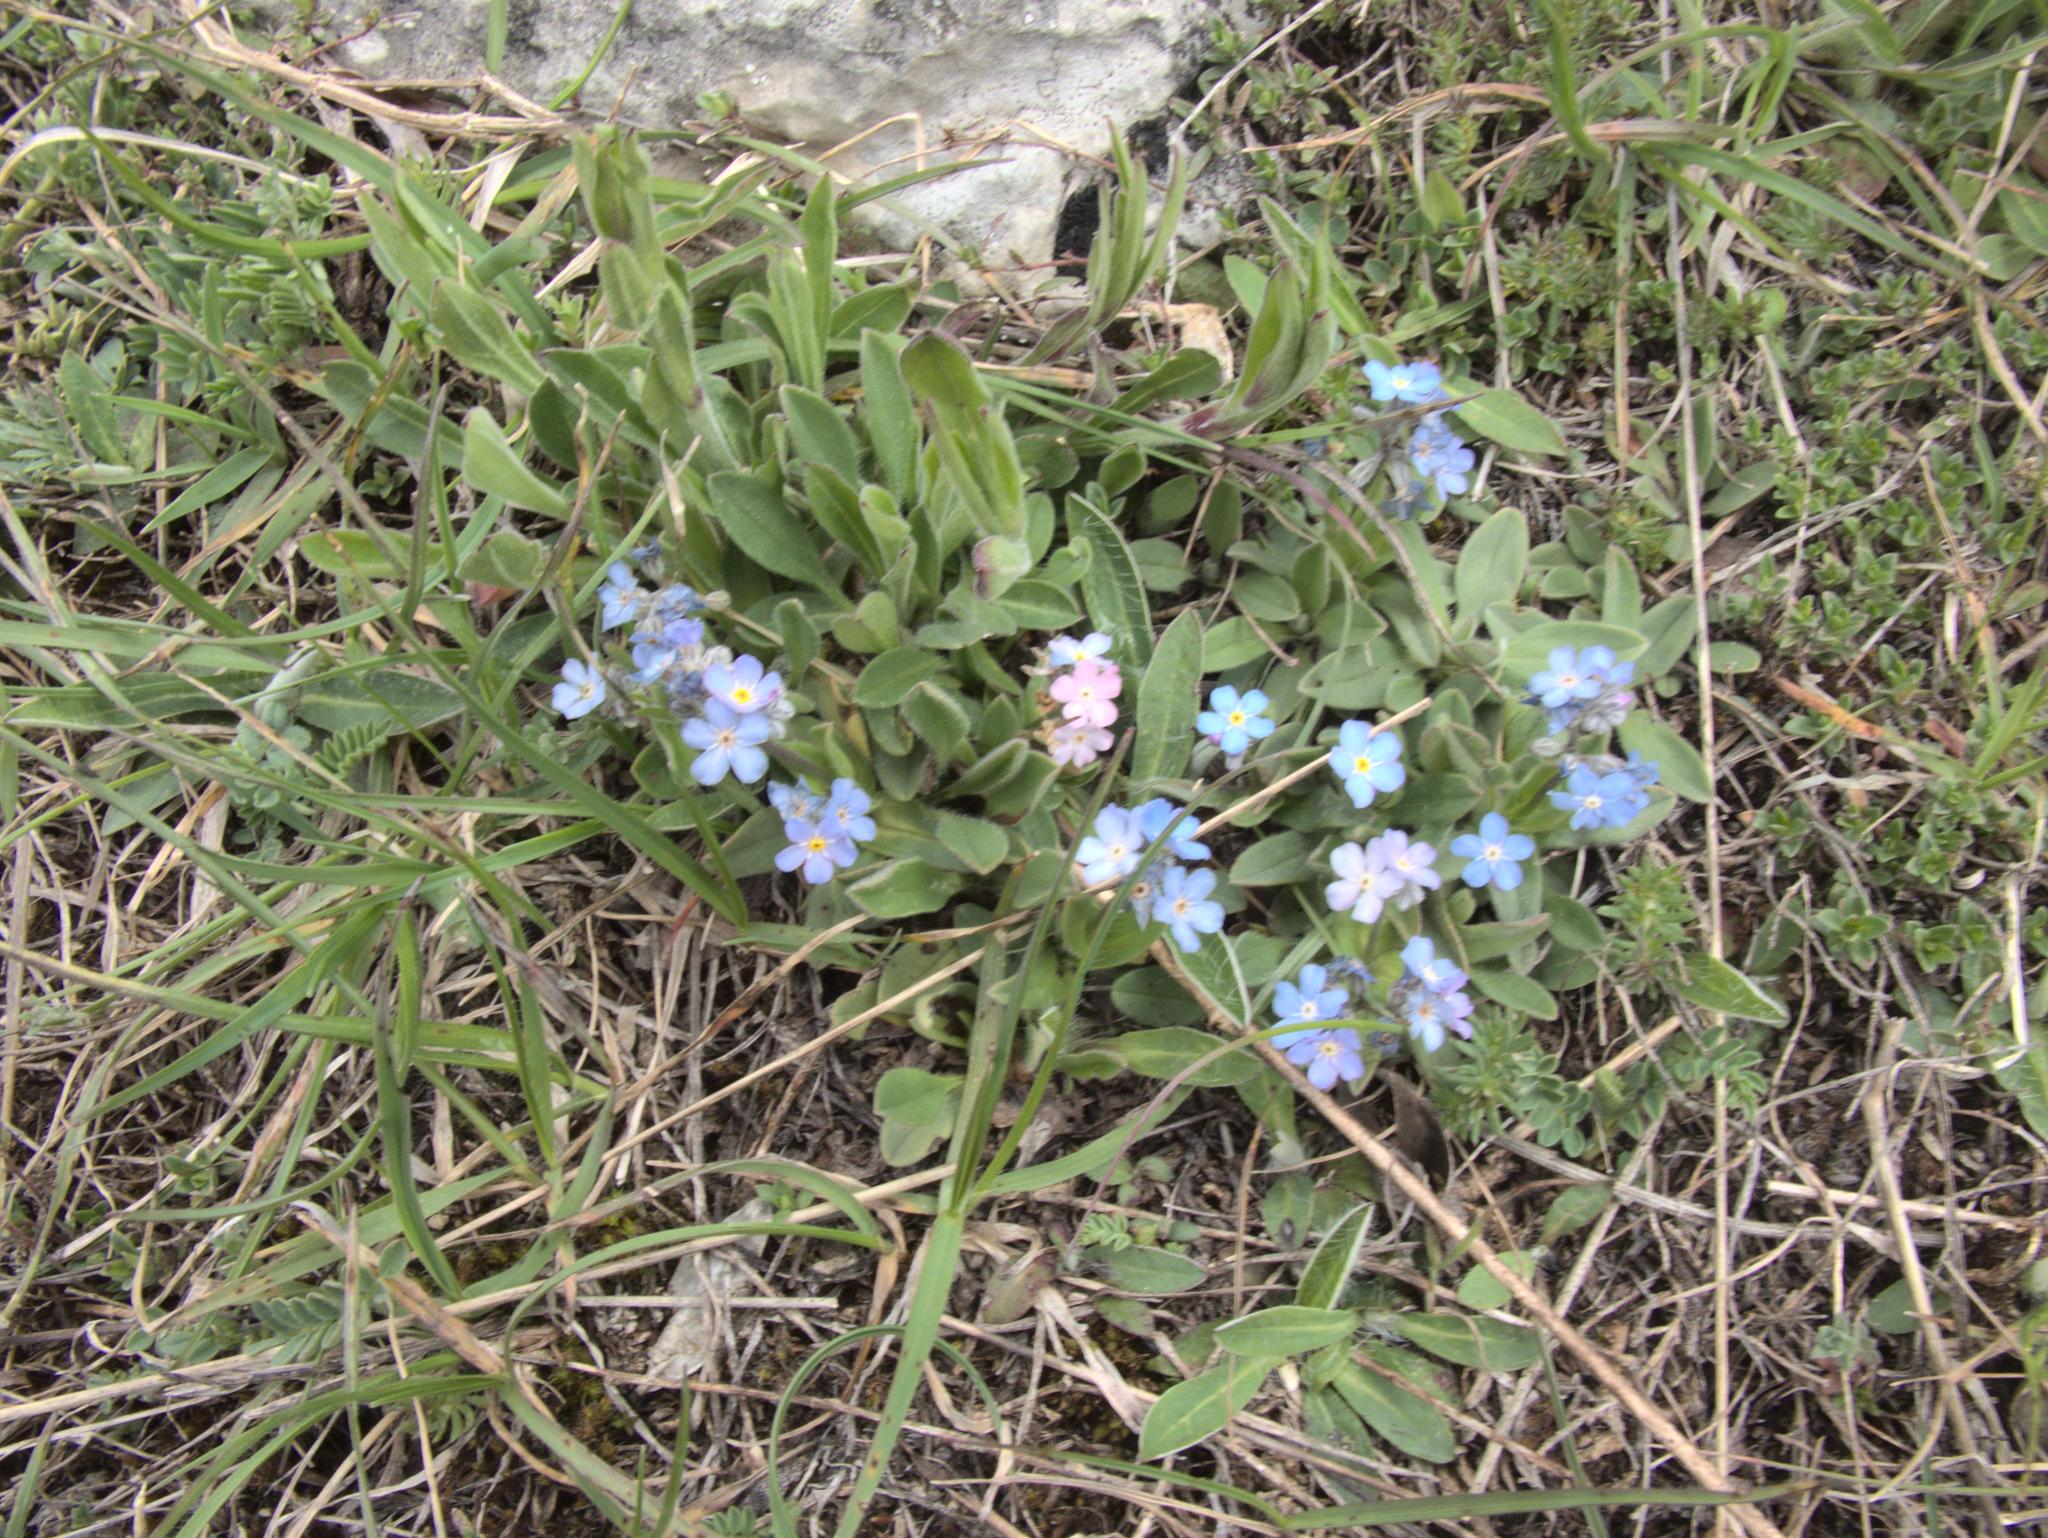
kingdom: Plantae
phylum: Tracheophyta
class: Magnoliopsida
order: Boraginales
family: Boraginaceae
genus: Myosotis
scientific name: Myosotis alpestris
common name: Alpine forget-me-not
